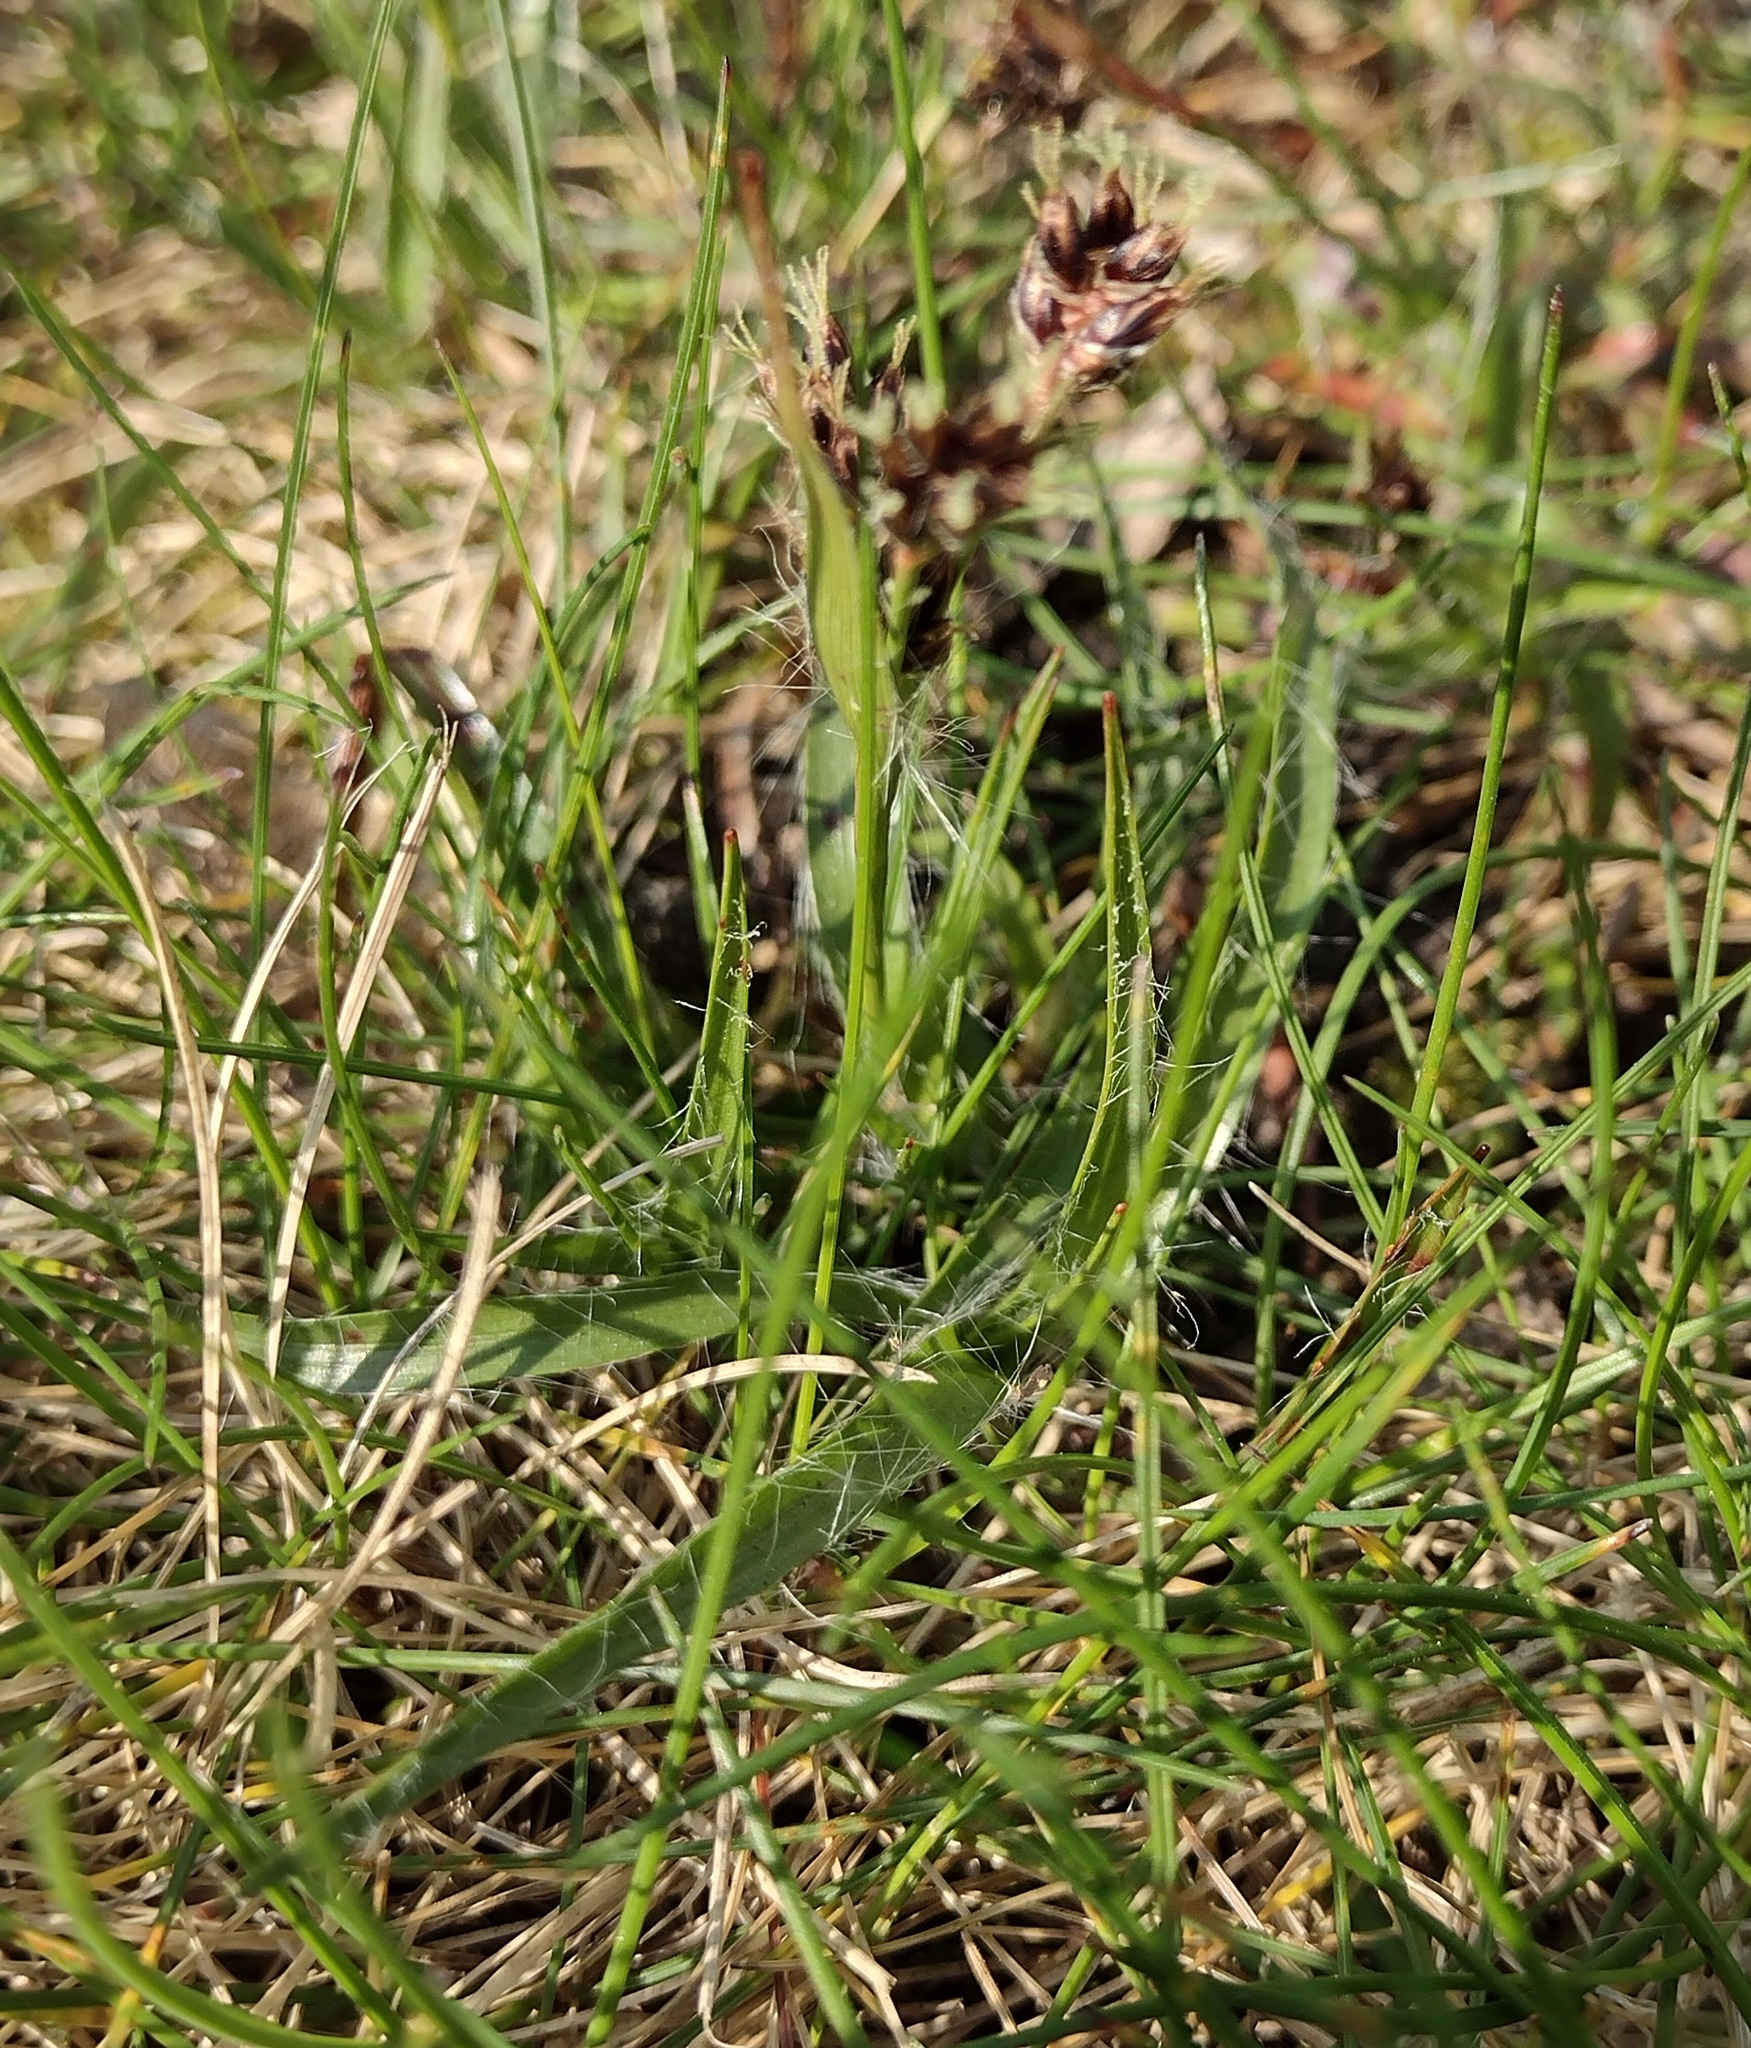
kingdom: Plantae
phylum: Tracheophyta
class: Liliopsida
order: Poales
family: Juncaceae
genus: Luzula
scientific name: Luzula campestris
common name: Field wood-rush
